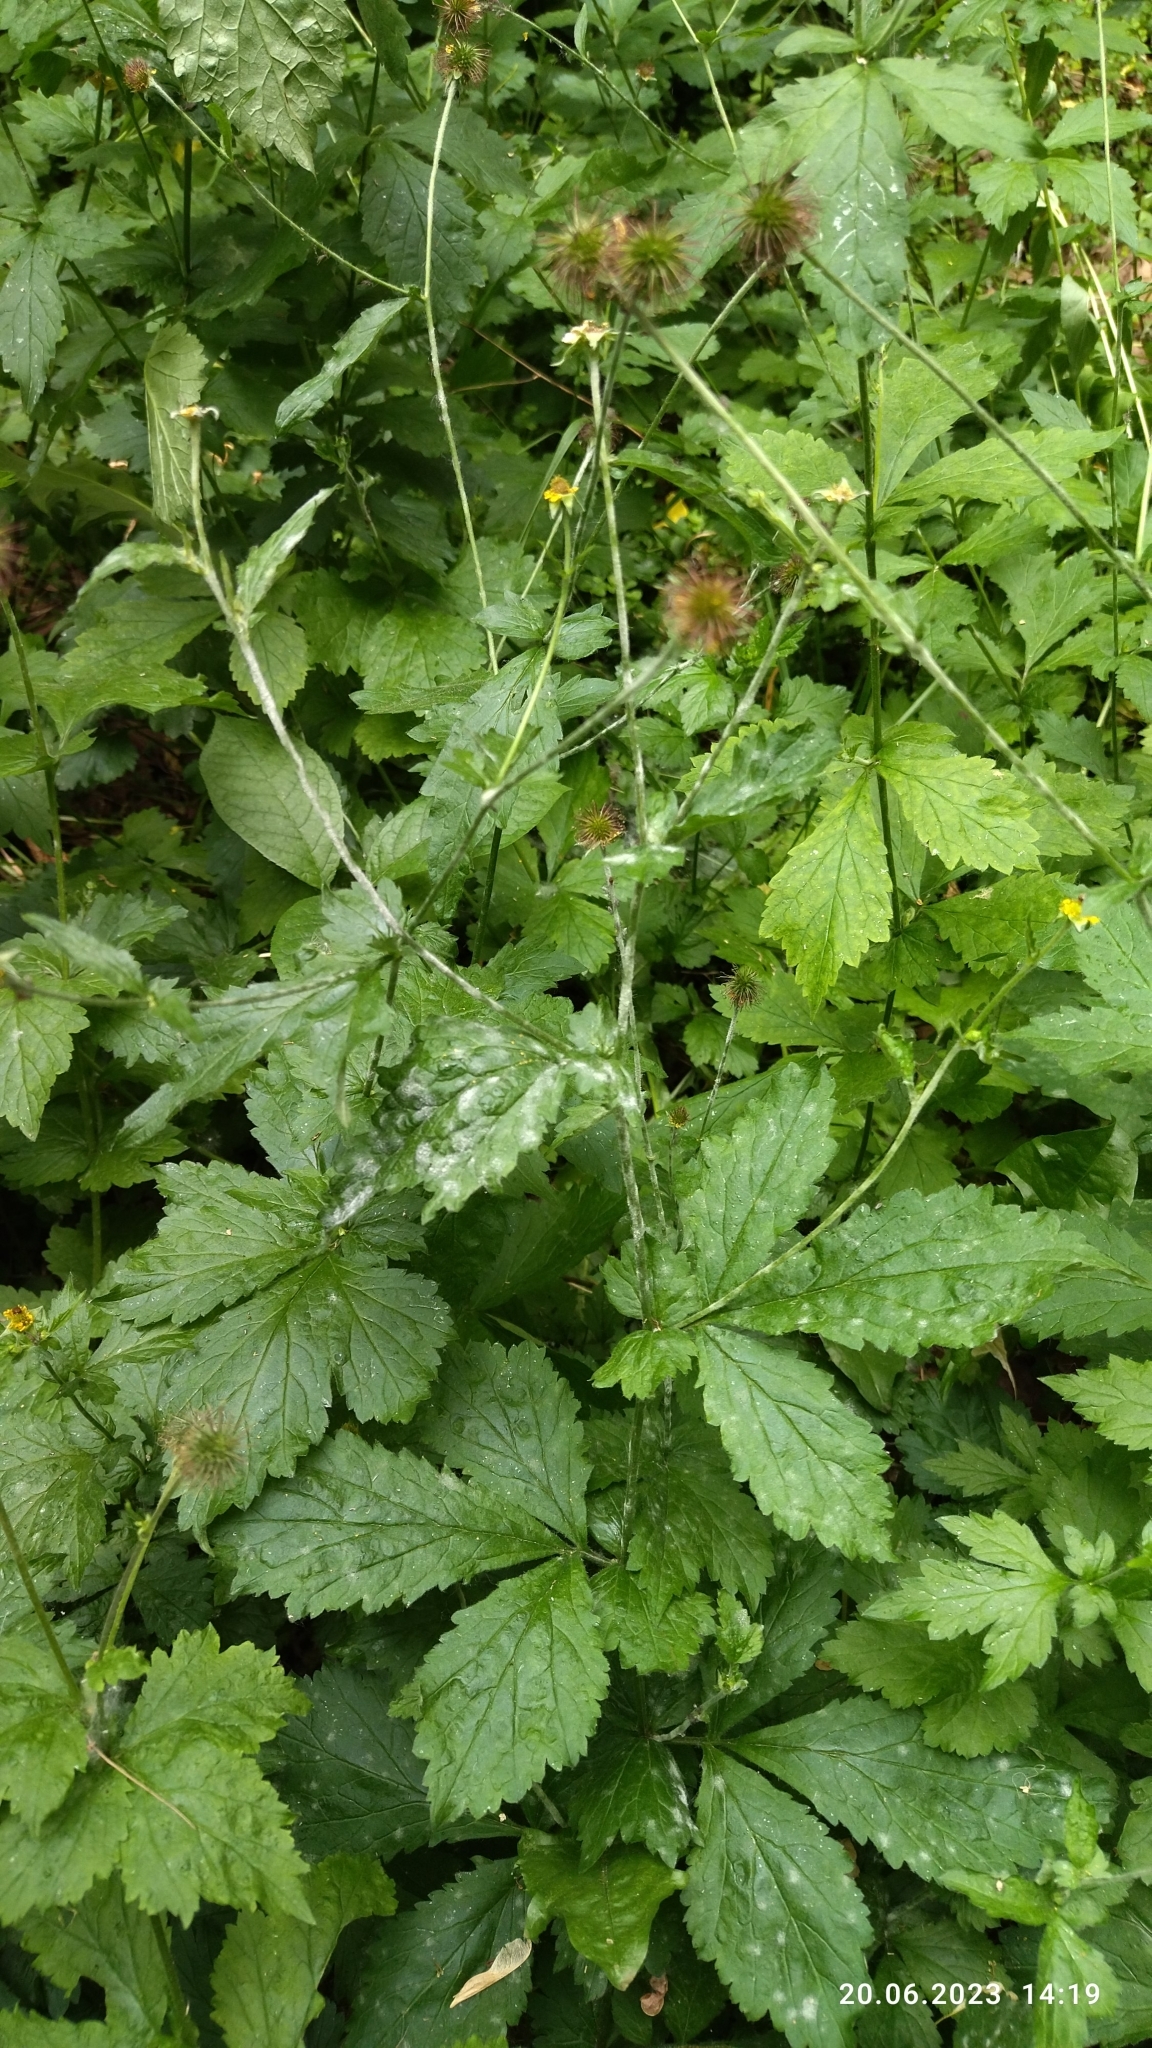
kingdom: Plantae
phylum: Tracheophyta
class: Magnoliopsida
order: Rosales
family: Rosaceae
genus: Geum
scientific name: Geum urbanum
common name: Wood avens
